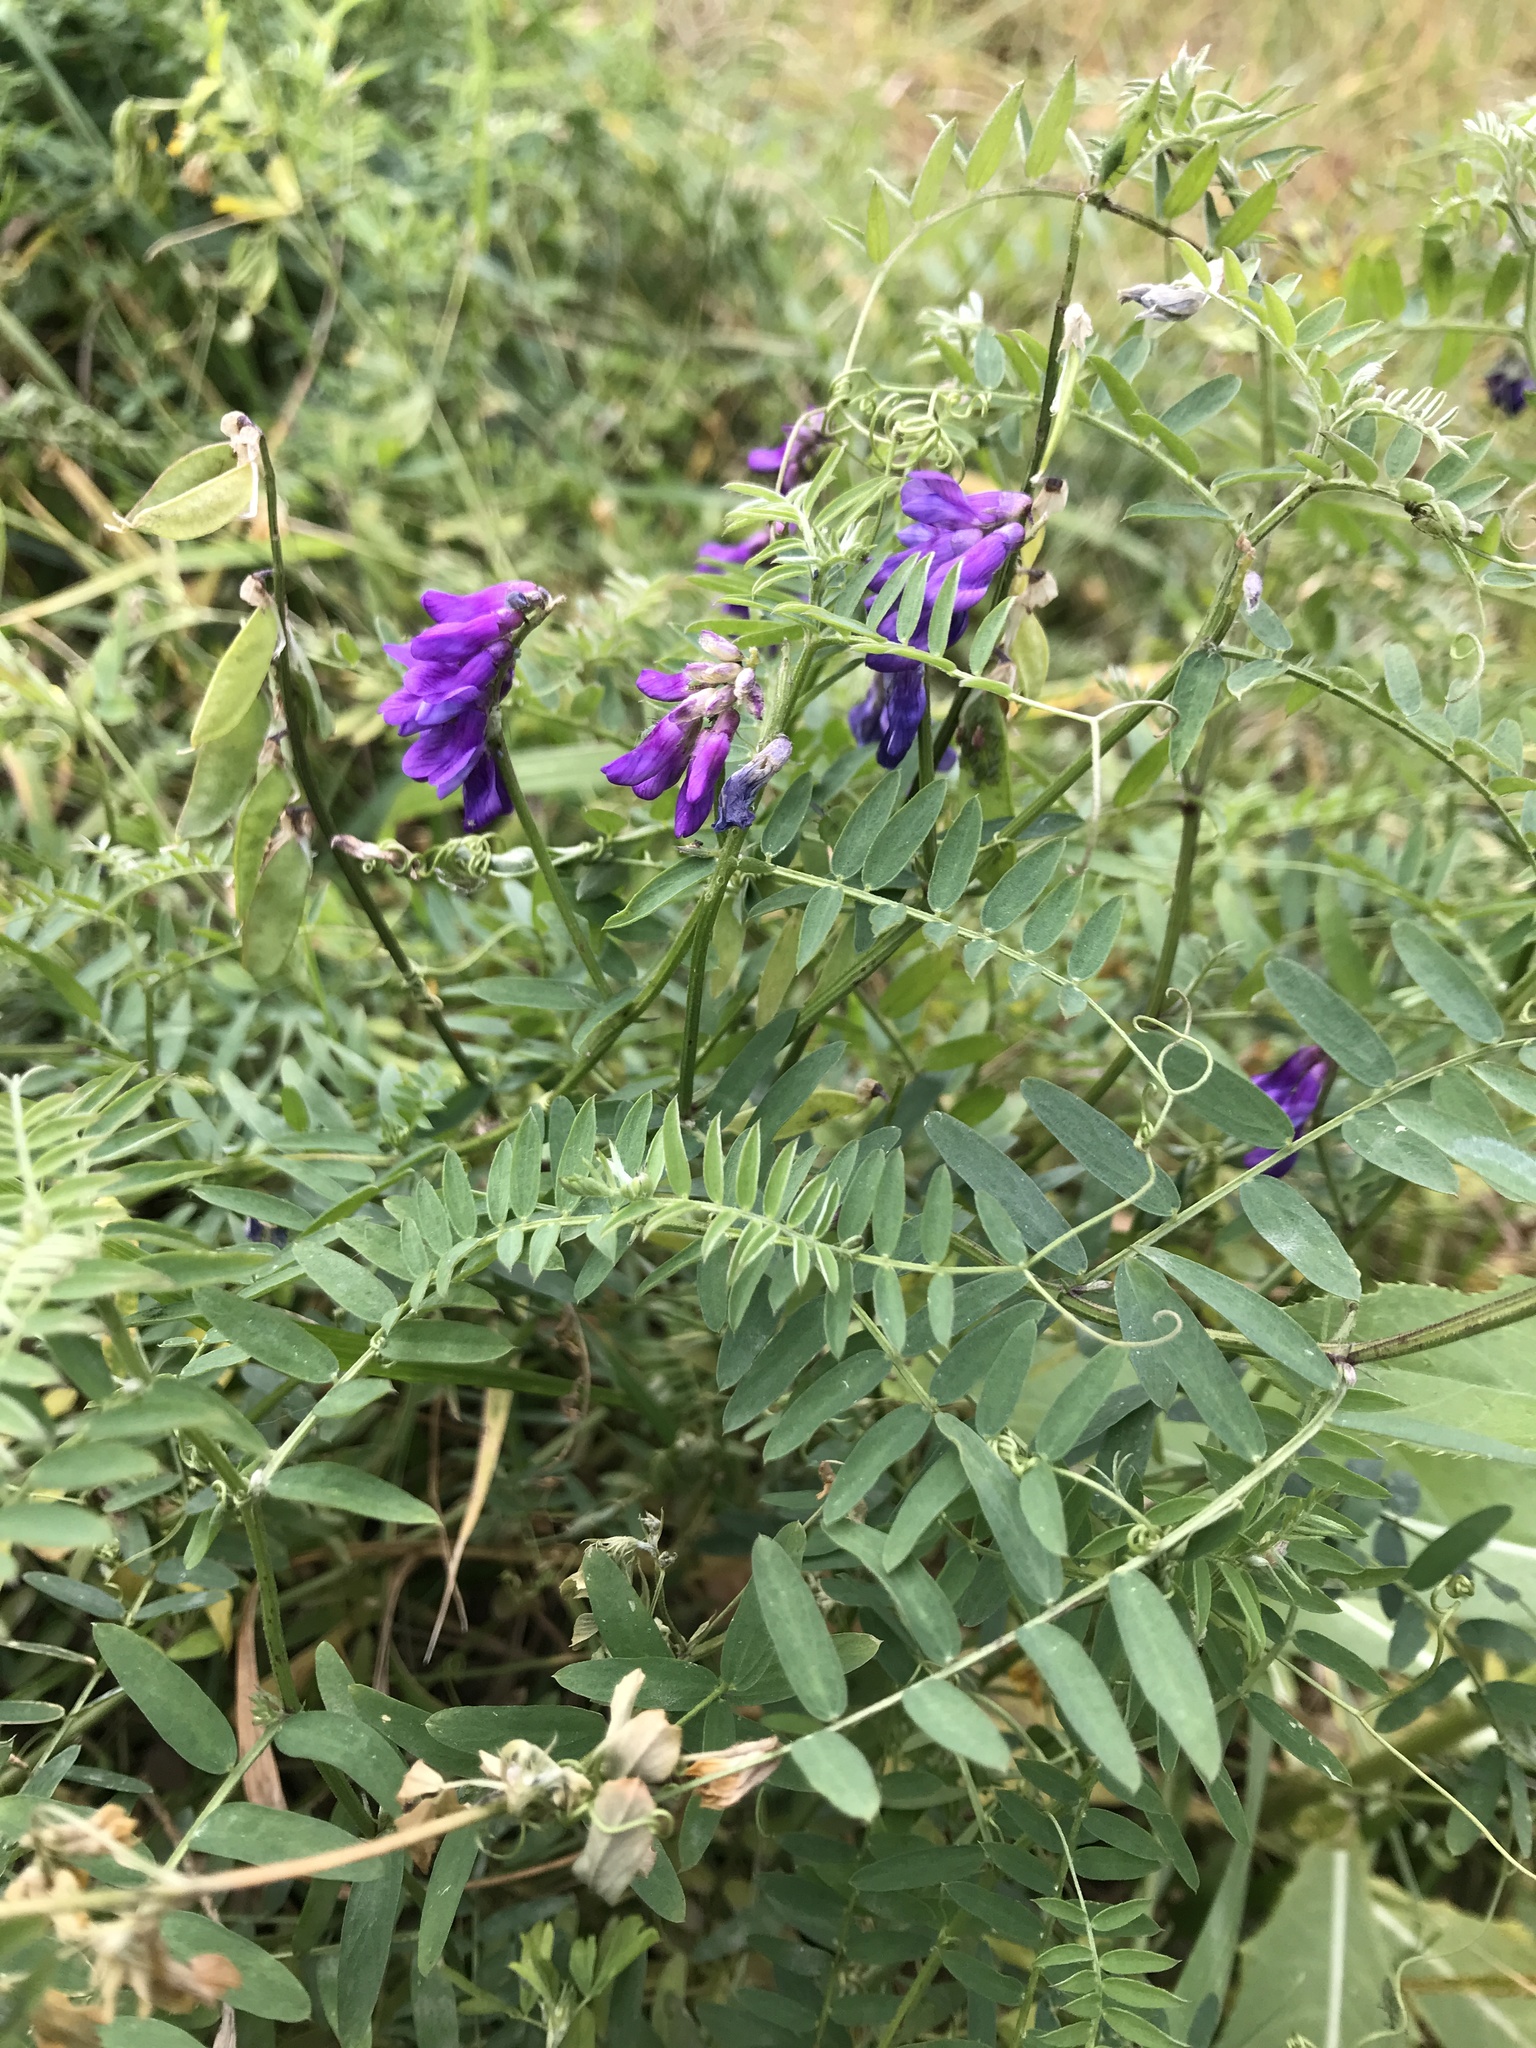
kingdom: Plantae
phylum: Tracheophyta
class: Magnoliopsida
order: Fabales
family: Fabaceae
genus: Vicia
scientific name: Vicia cracca
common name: Bird vetch
